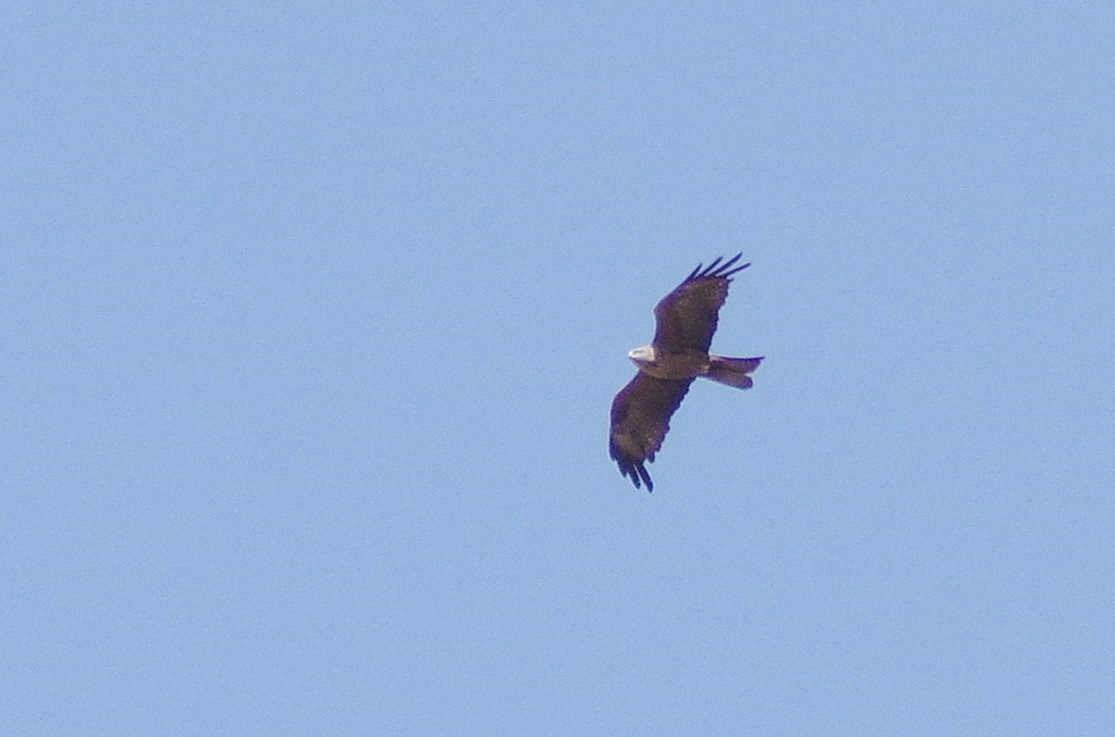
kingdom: Animalia
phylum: Chordata
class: Aves
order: Accipitriformes
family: Accipitridae
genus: Milvus
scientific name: Milvus migrans
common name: Black kite
